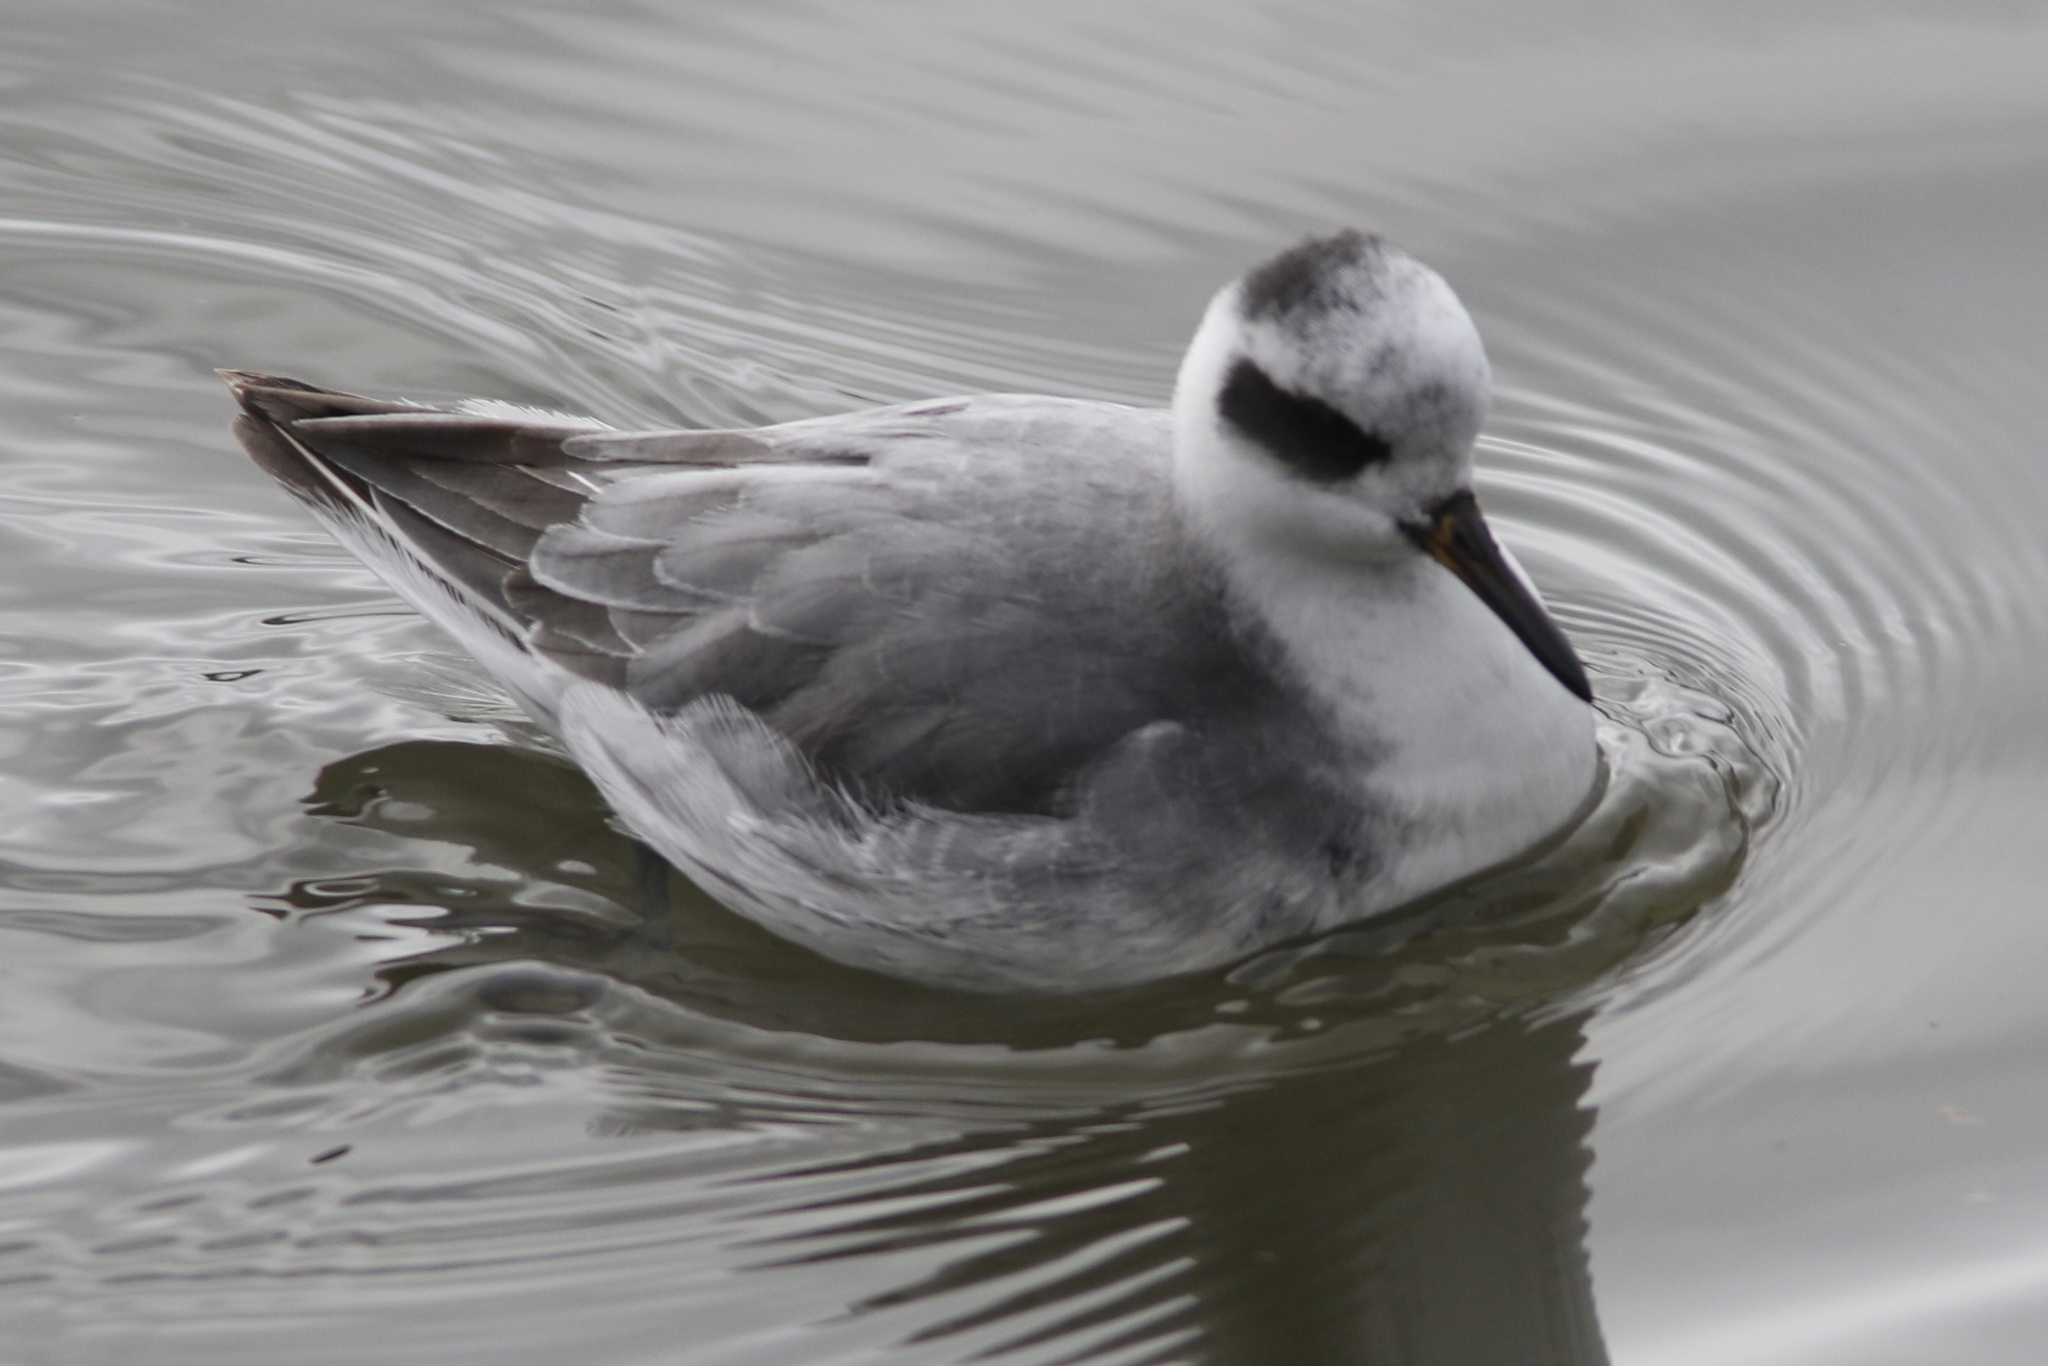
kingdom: Animalia
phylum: Chordata
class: Aves
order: Charadriiformes
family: Scolopacidae
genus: Phalaropus
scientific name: Phalaropus fulicarius
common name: Red phalarope
